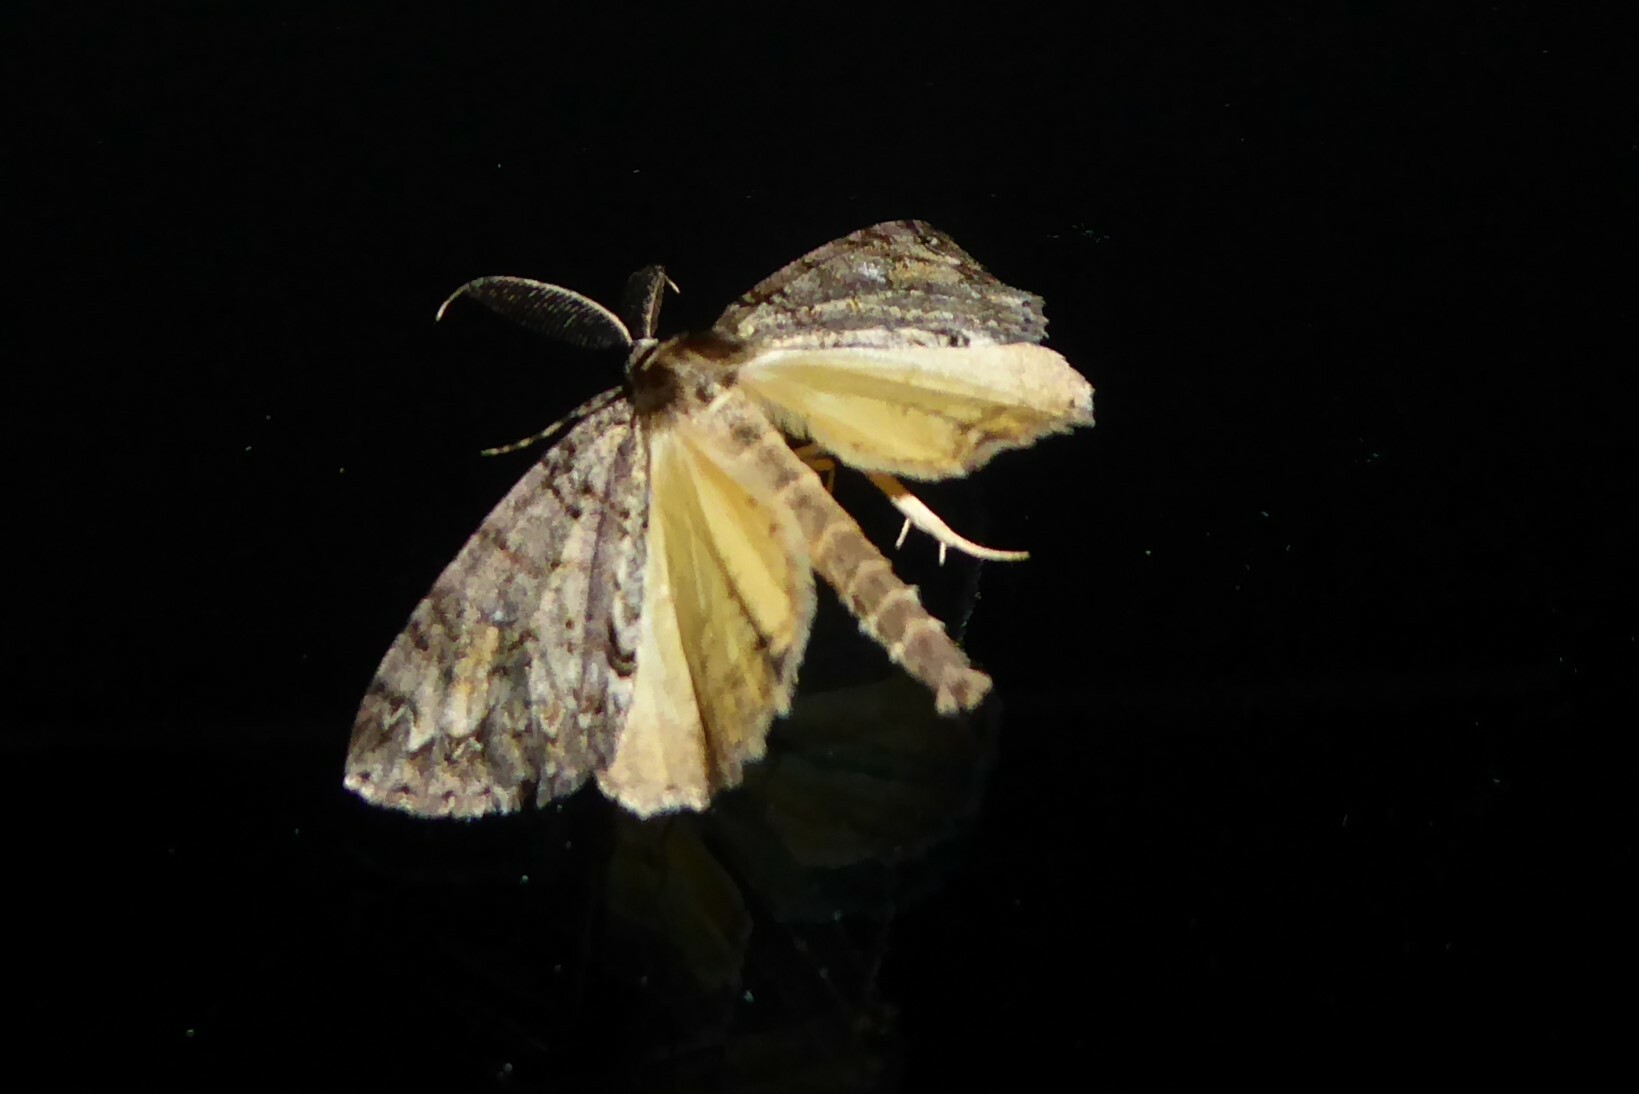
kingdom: Animalia
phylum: Arthropoda
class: Insecta
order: Lepidoptera
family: Geometridae
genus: Pseudocoremia
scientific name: Pseudocoremia suavis
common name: Common forest looper
